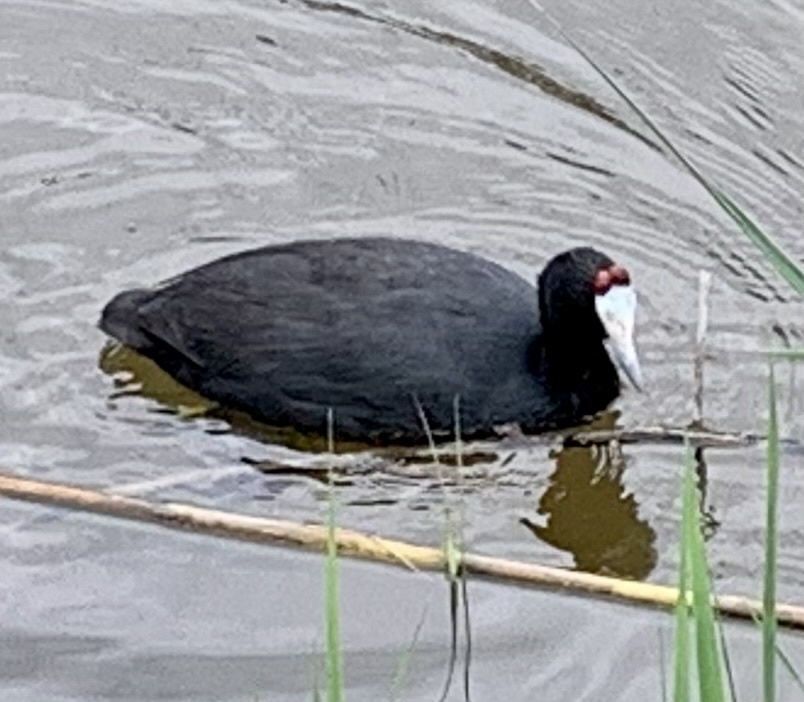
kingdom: Animalia
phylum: Chordata
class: Aves
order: Gruiformes
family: Rallidae
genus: Fulica
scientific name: Fulica cristata
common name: Red-knobbed coot
